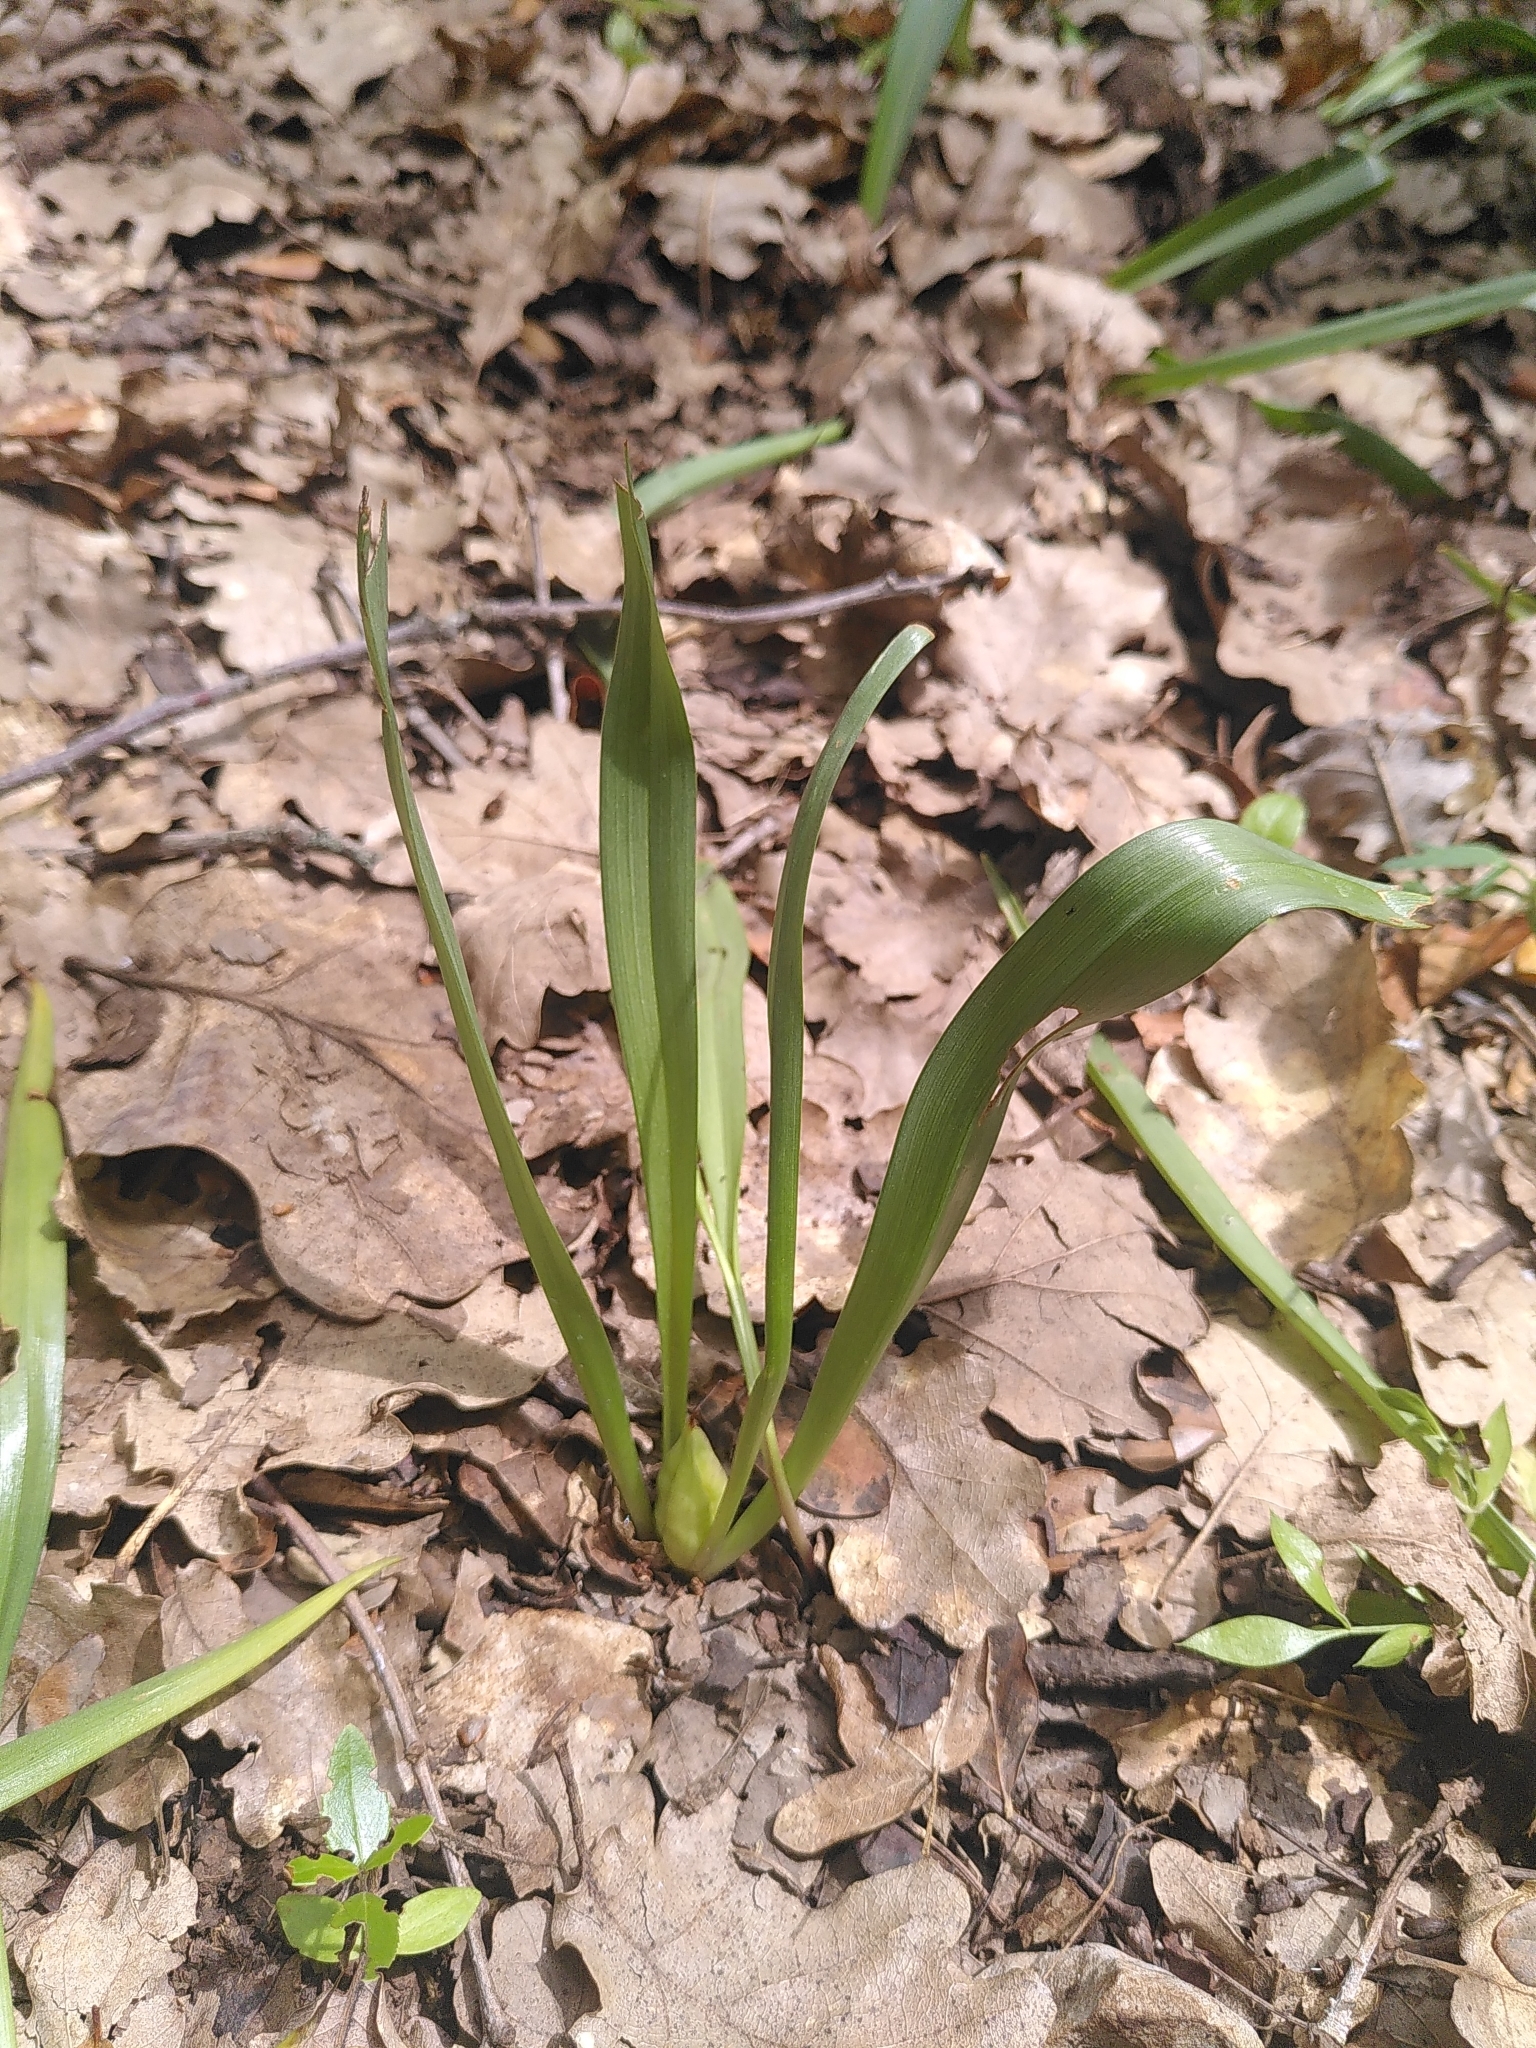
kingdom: Plantae
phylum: Tracheophyta
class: Liliopsida
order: Liliales
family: Colchicaceae
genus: Colchicum
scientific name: Colchicum longifolium
